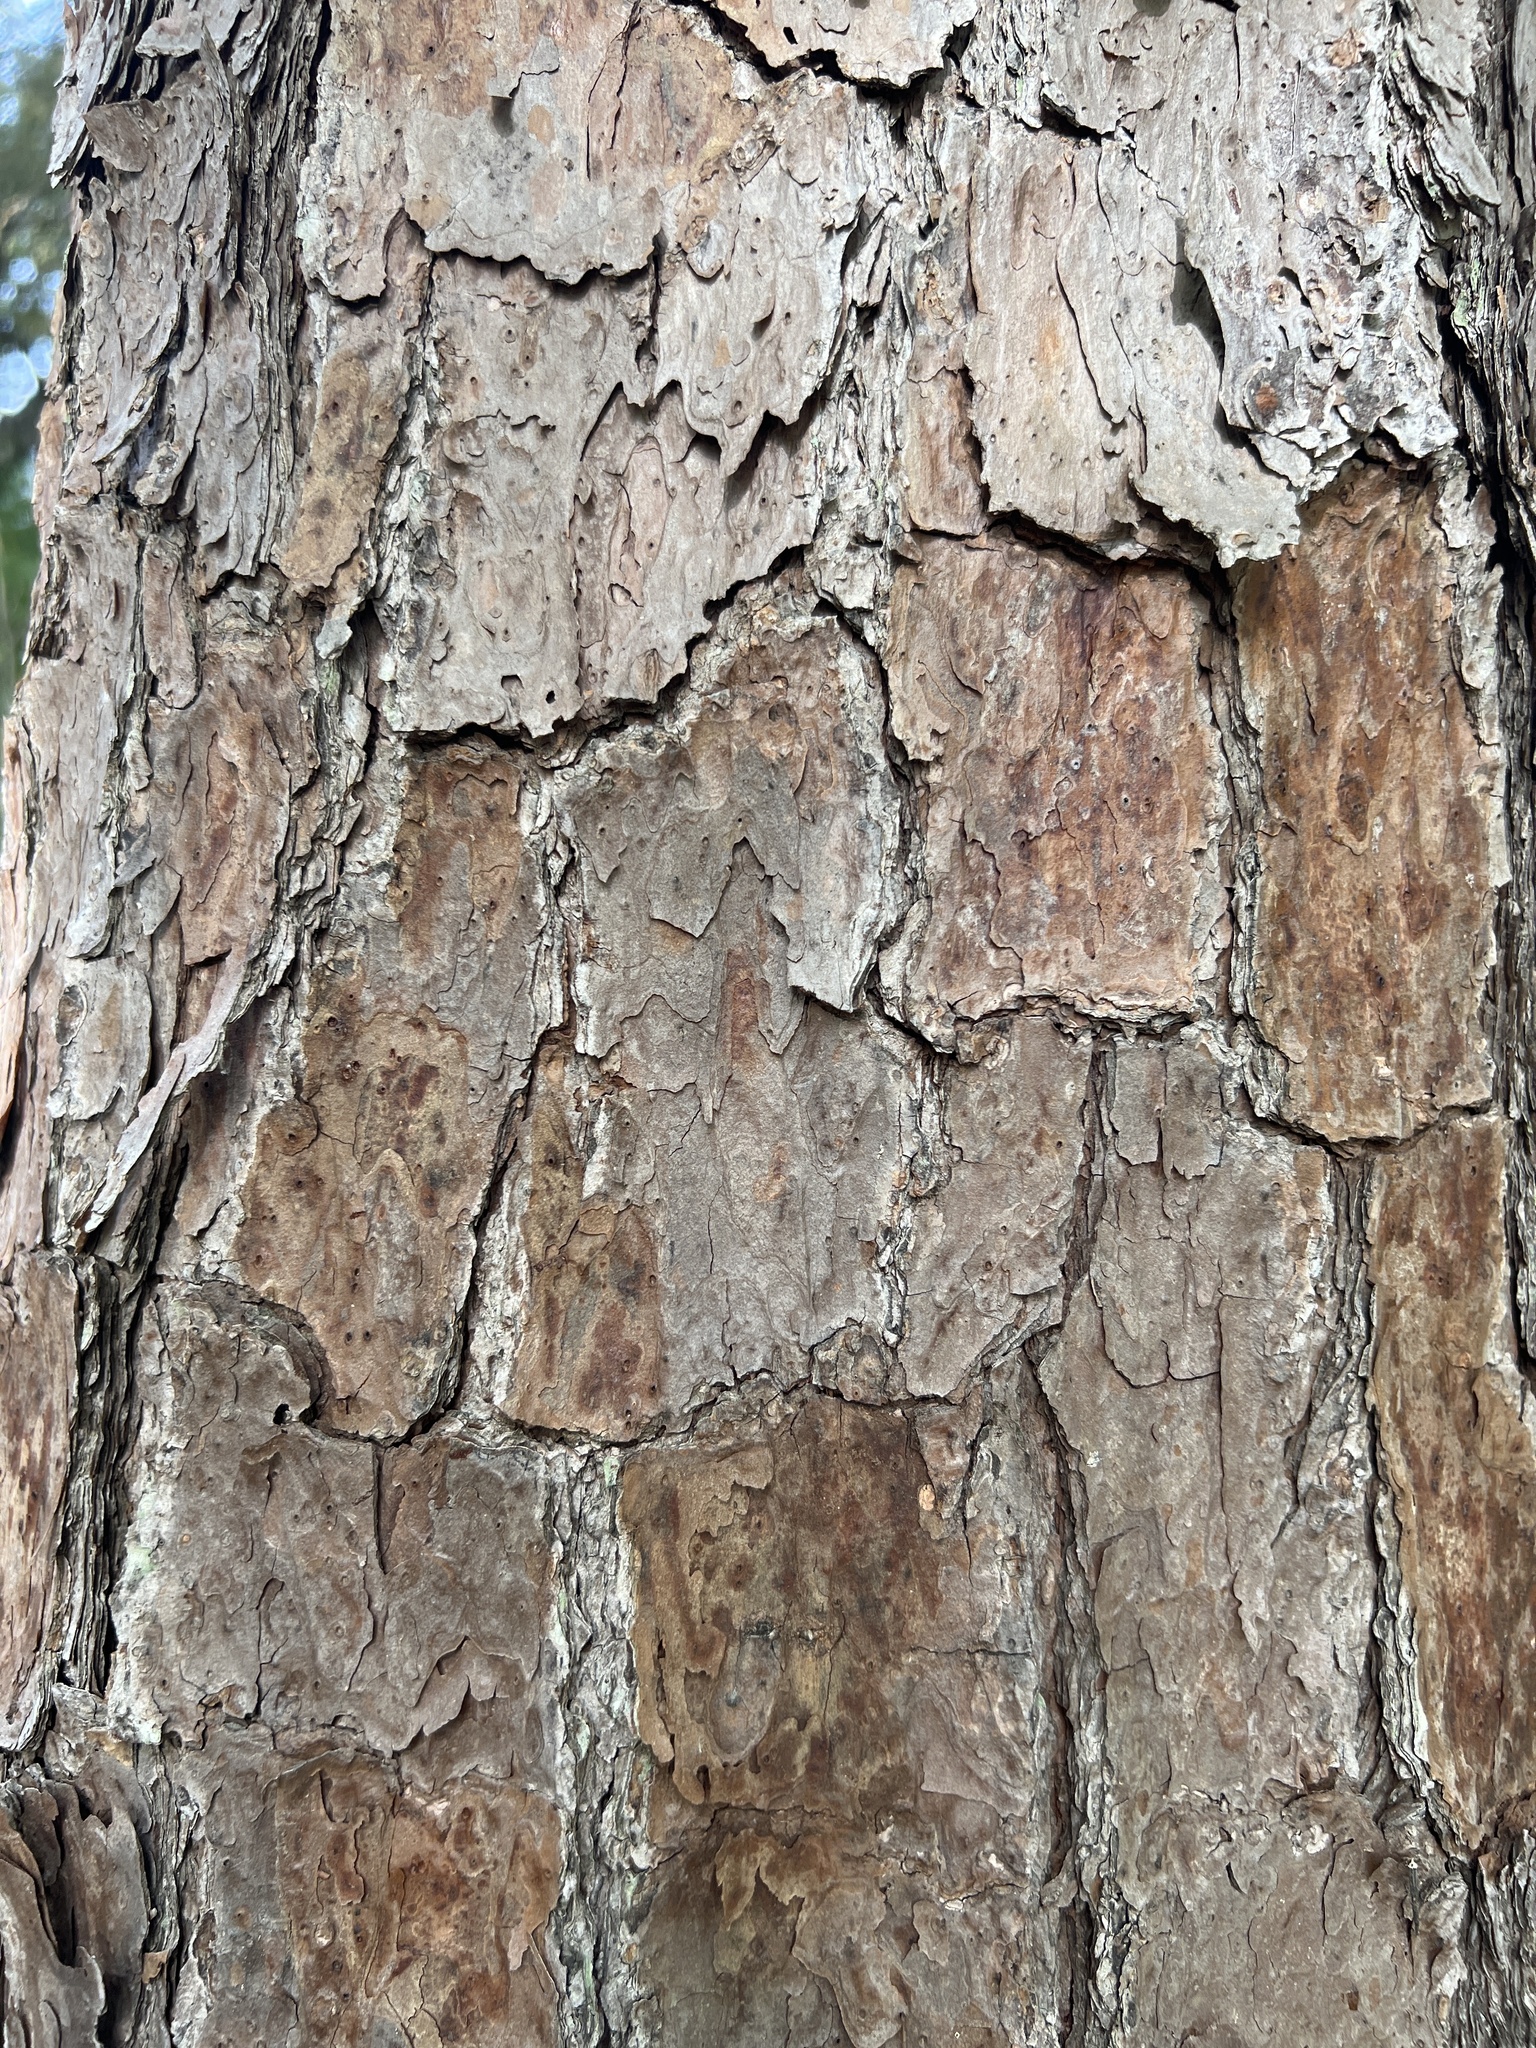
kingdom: Plantae
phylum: Tracheophyta
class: Pinopsida
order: Pinales
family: Pinaceae
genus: Pinus
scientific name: Pinus echinata
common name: Shortleaf pine
